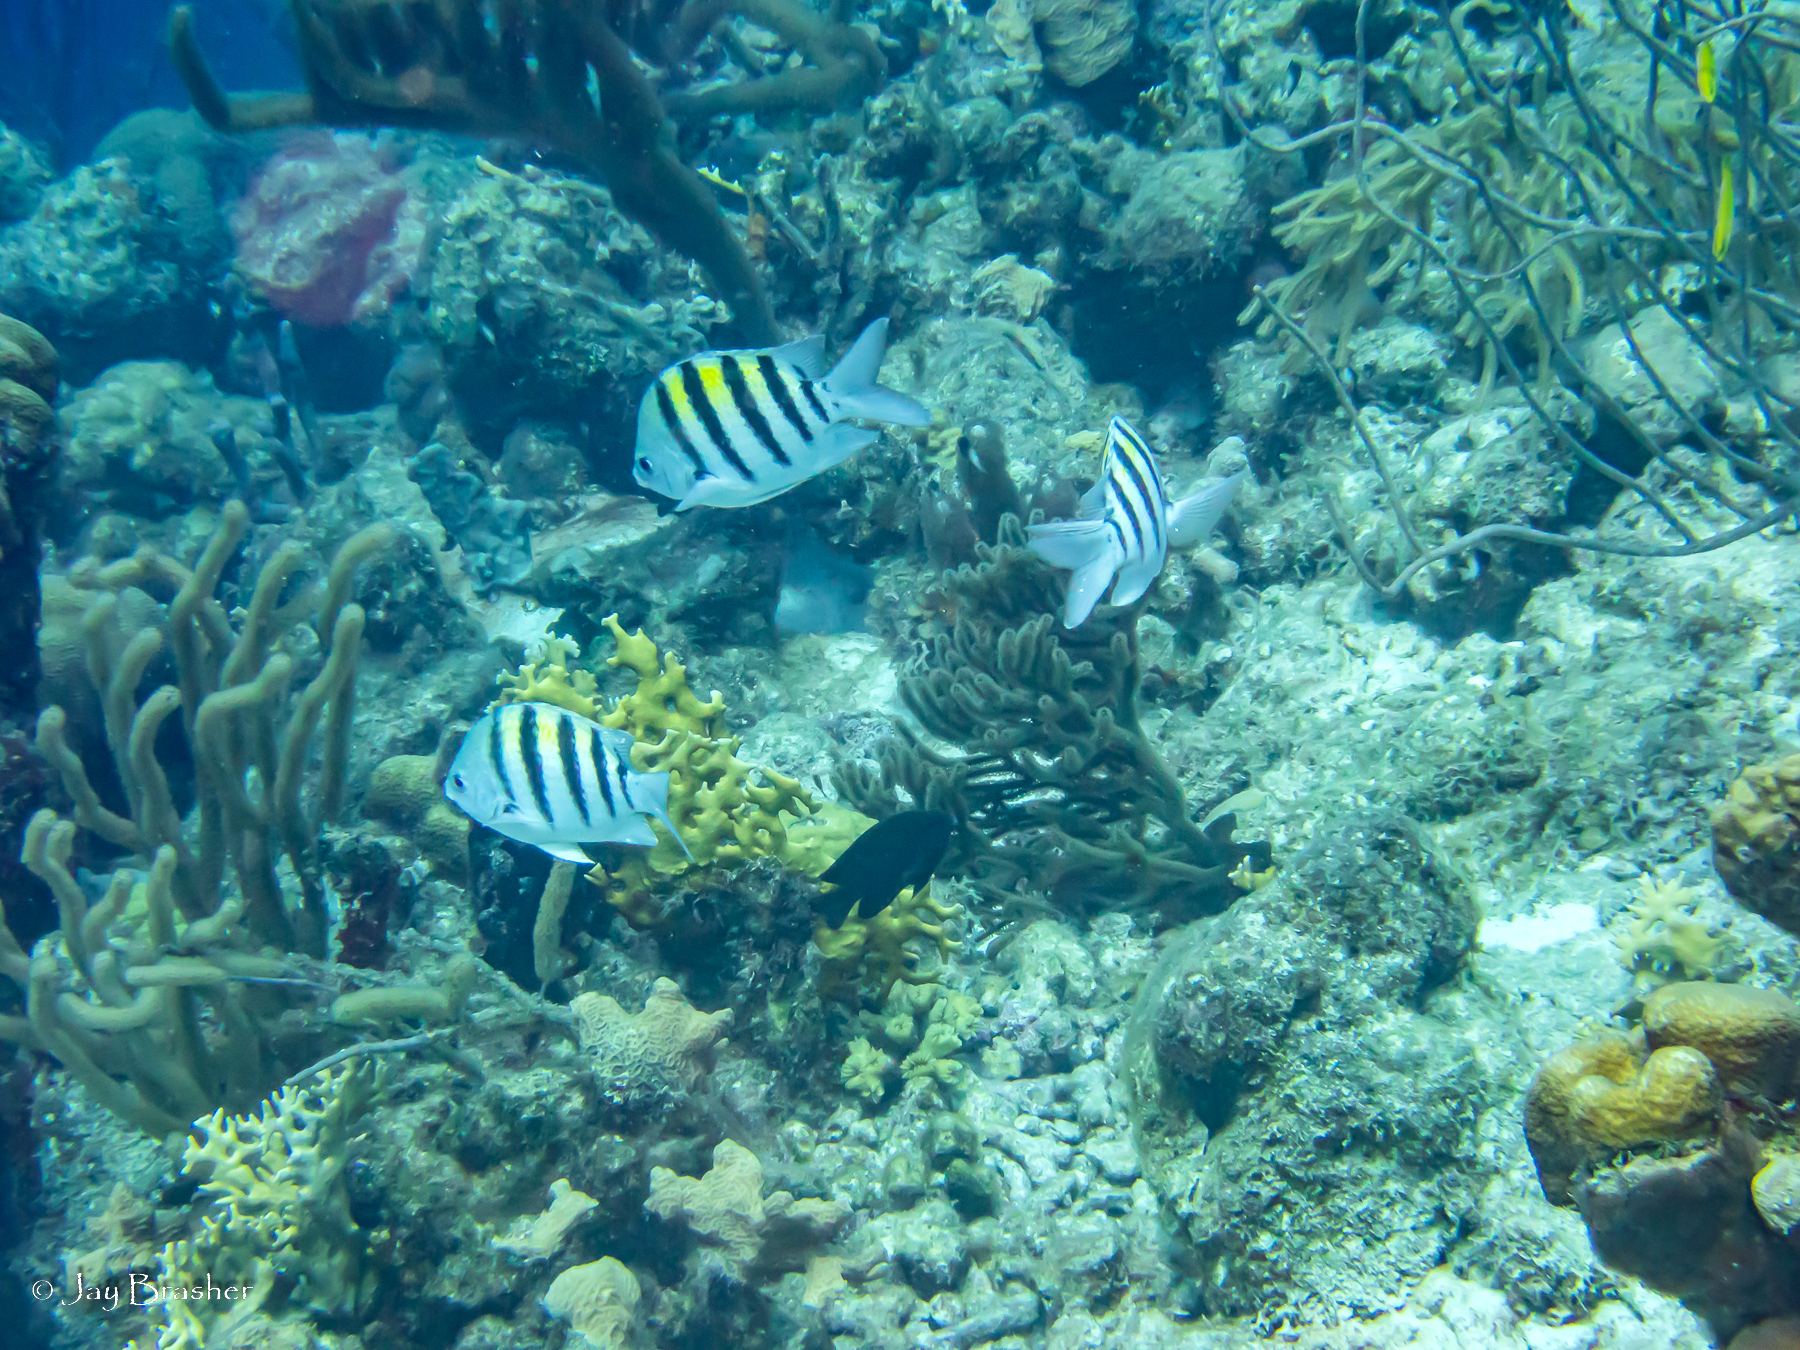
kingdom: Animalia
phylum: Chordata
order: Perciformes
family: Pomacentridae
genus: Abudefduf
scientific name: Abudefduf saxatilis
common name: Sergeant major
